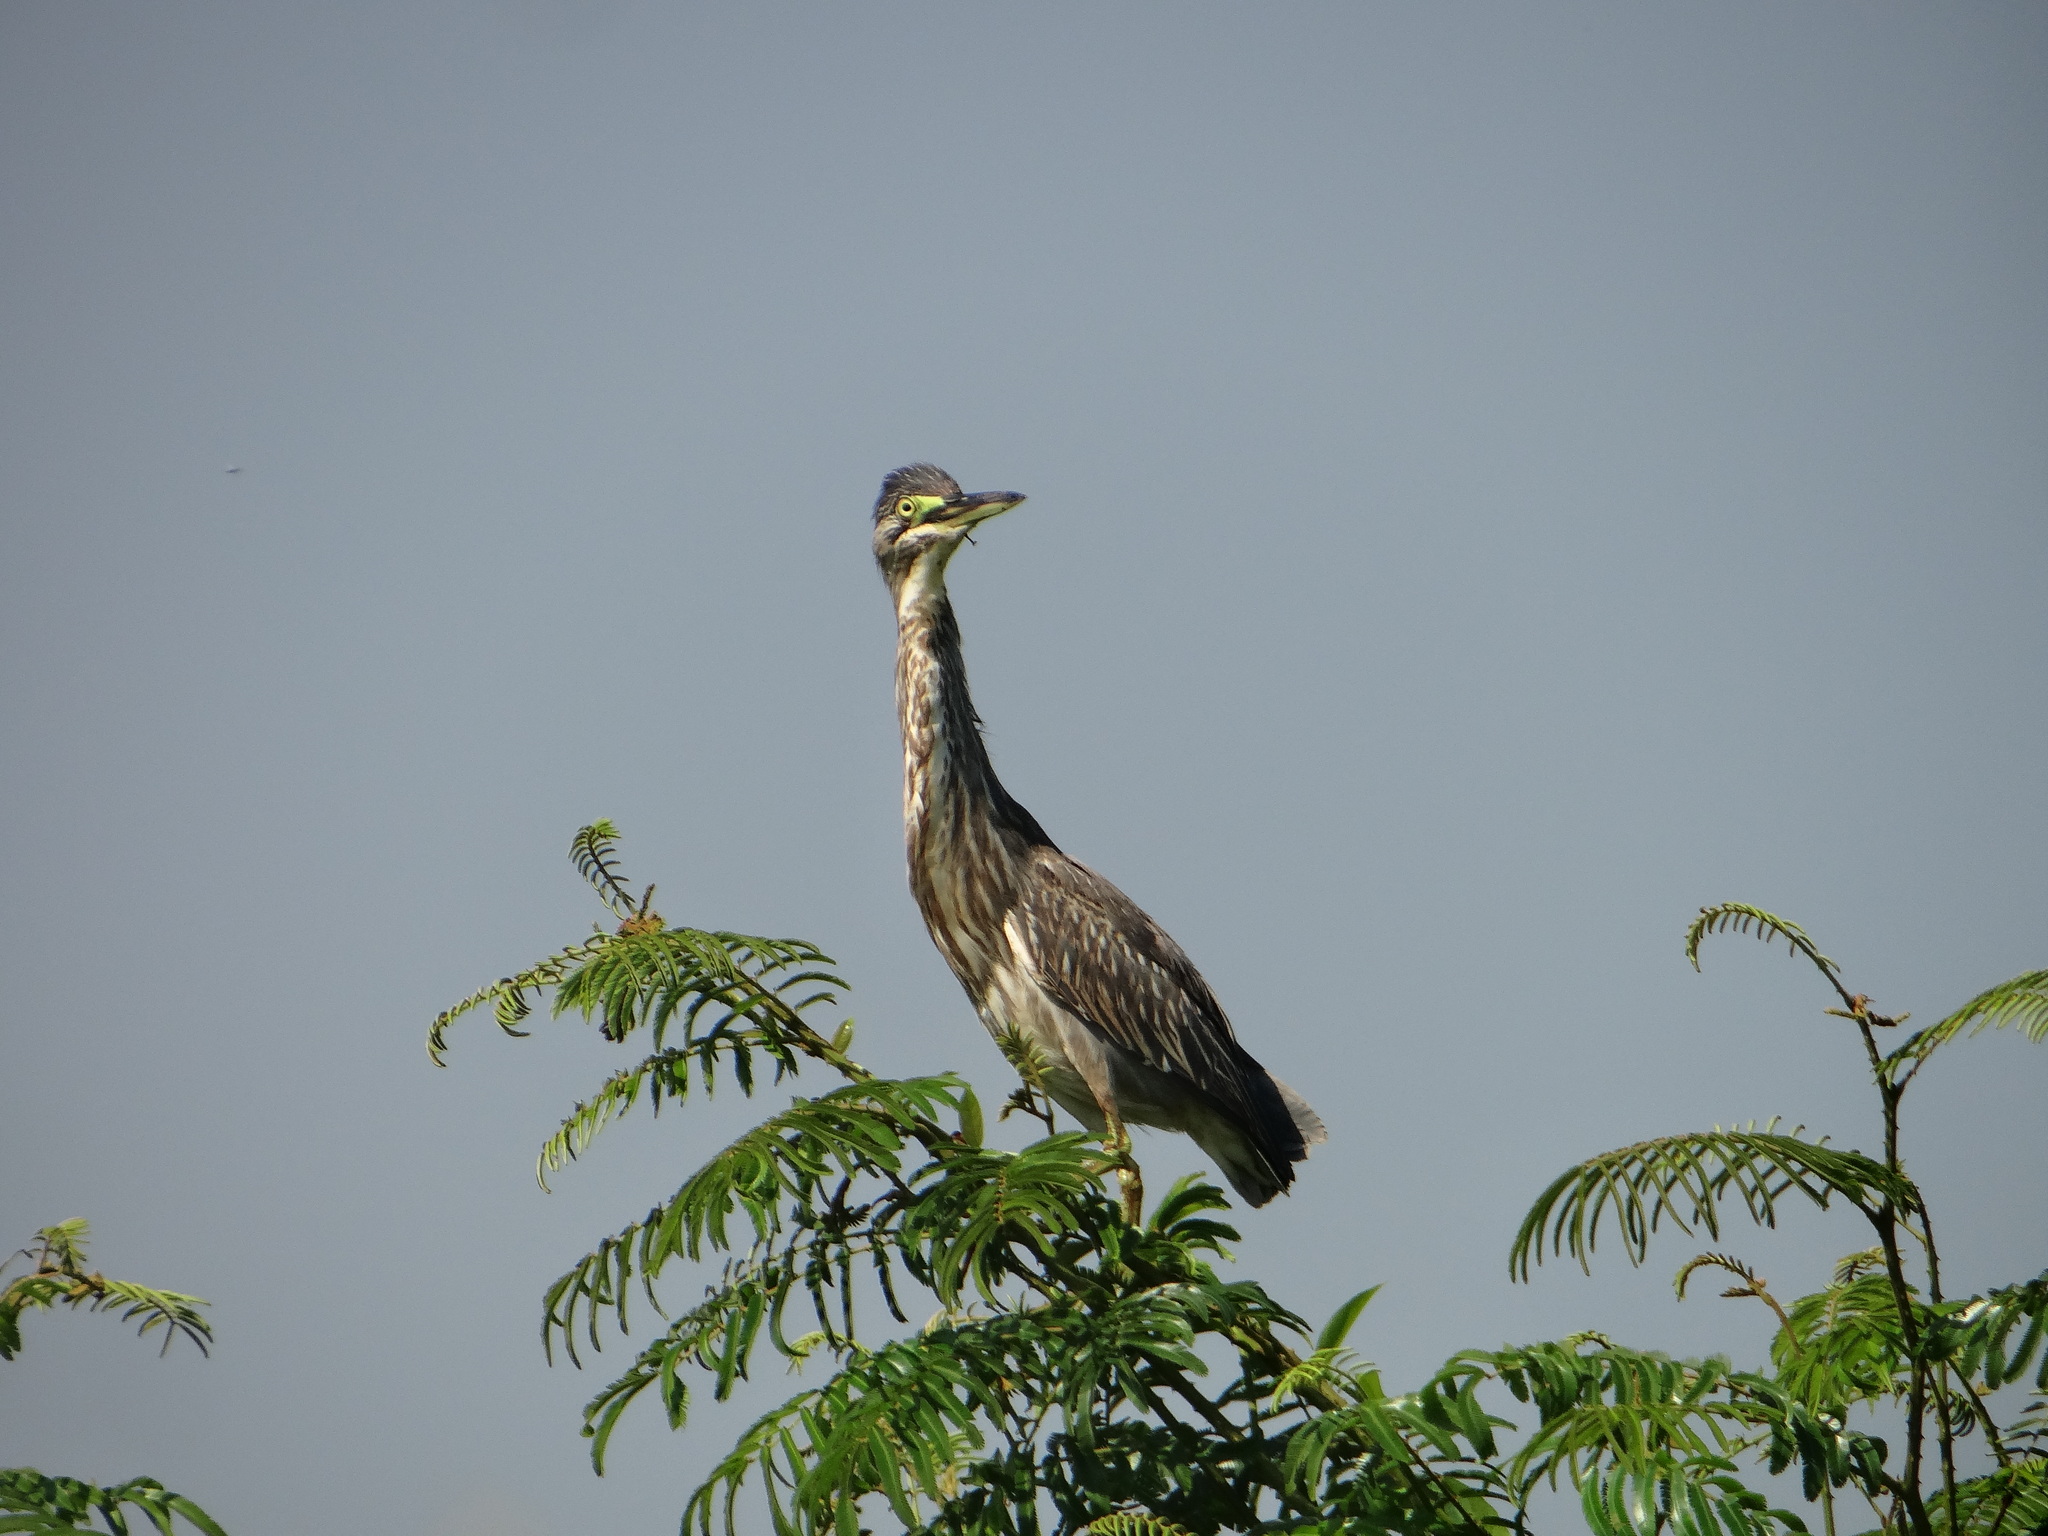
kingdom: Animalia
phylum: Chordata
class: Aves
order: Pelecaniformes
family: Ardeidae
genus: Butorides
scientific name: Butorides striata
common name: Striated heron
